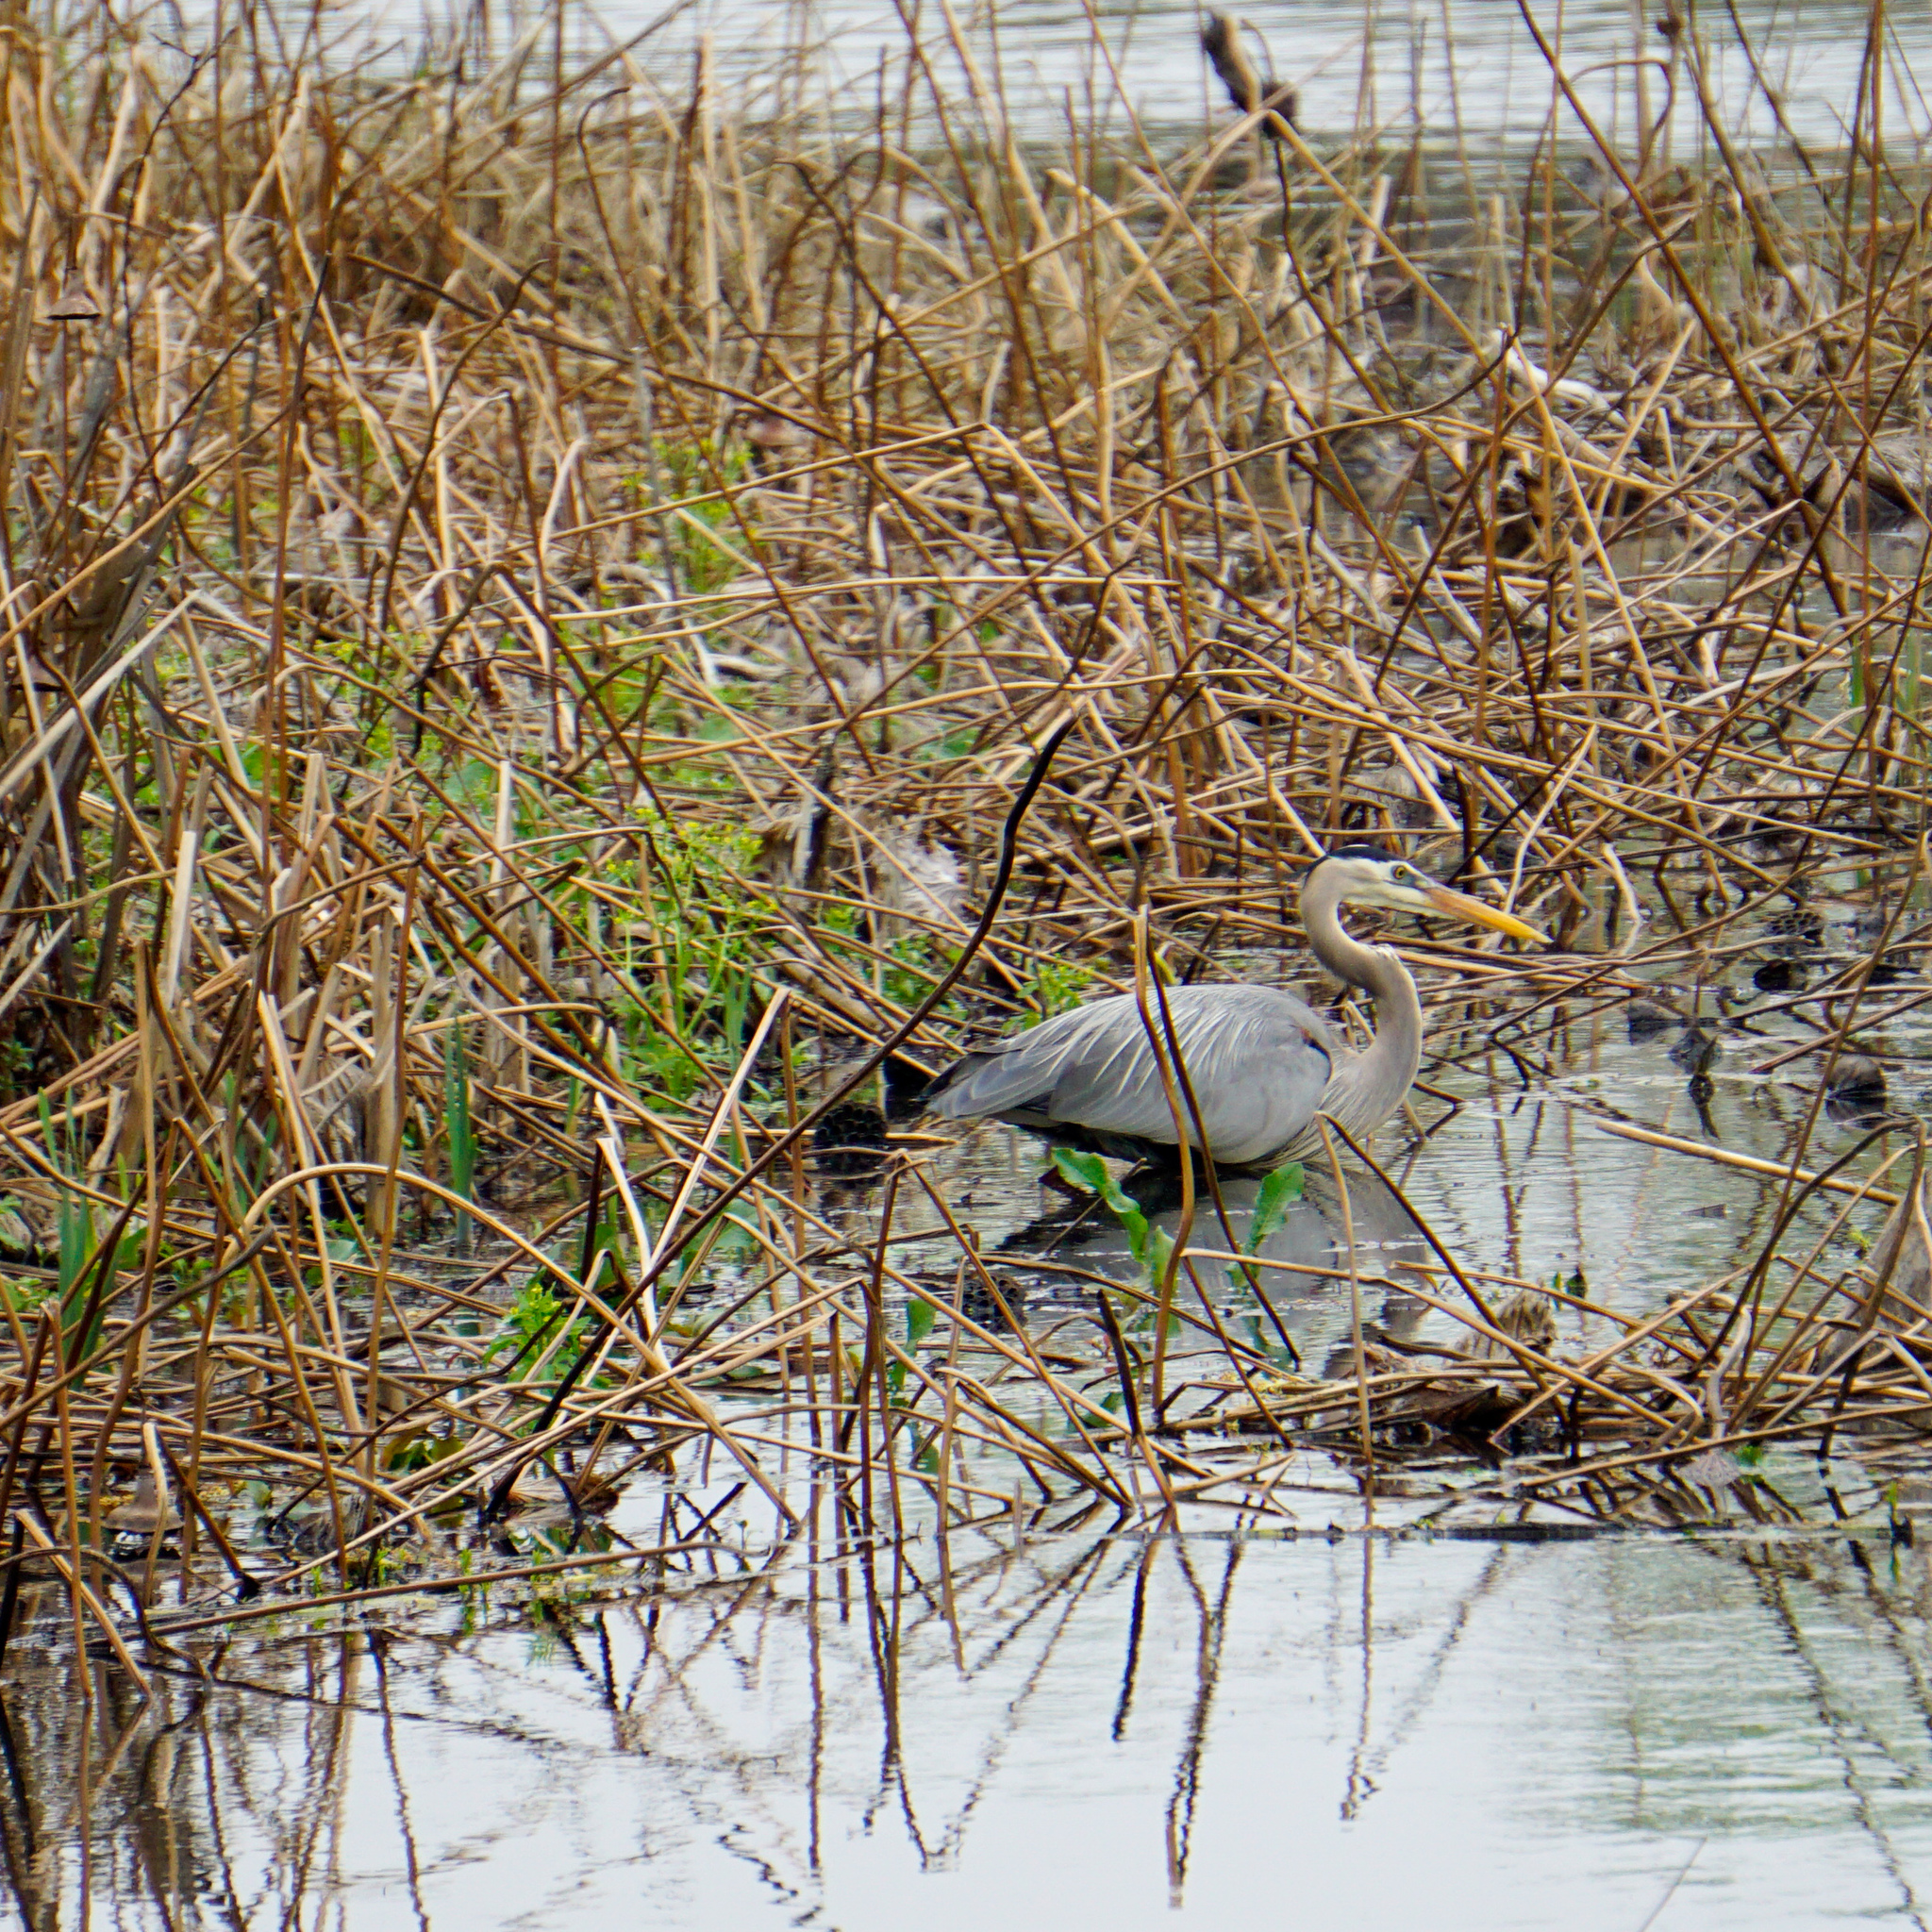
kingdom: Animalia
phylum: Chordata
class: Aves
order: Pelecaniformes
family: Ardeidae
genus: Ardea
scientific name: Ardea herodias
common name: Great blue heron
